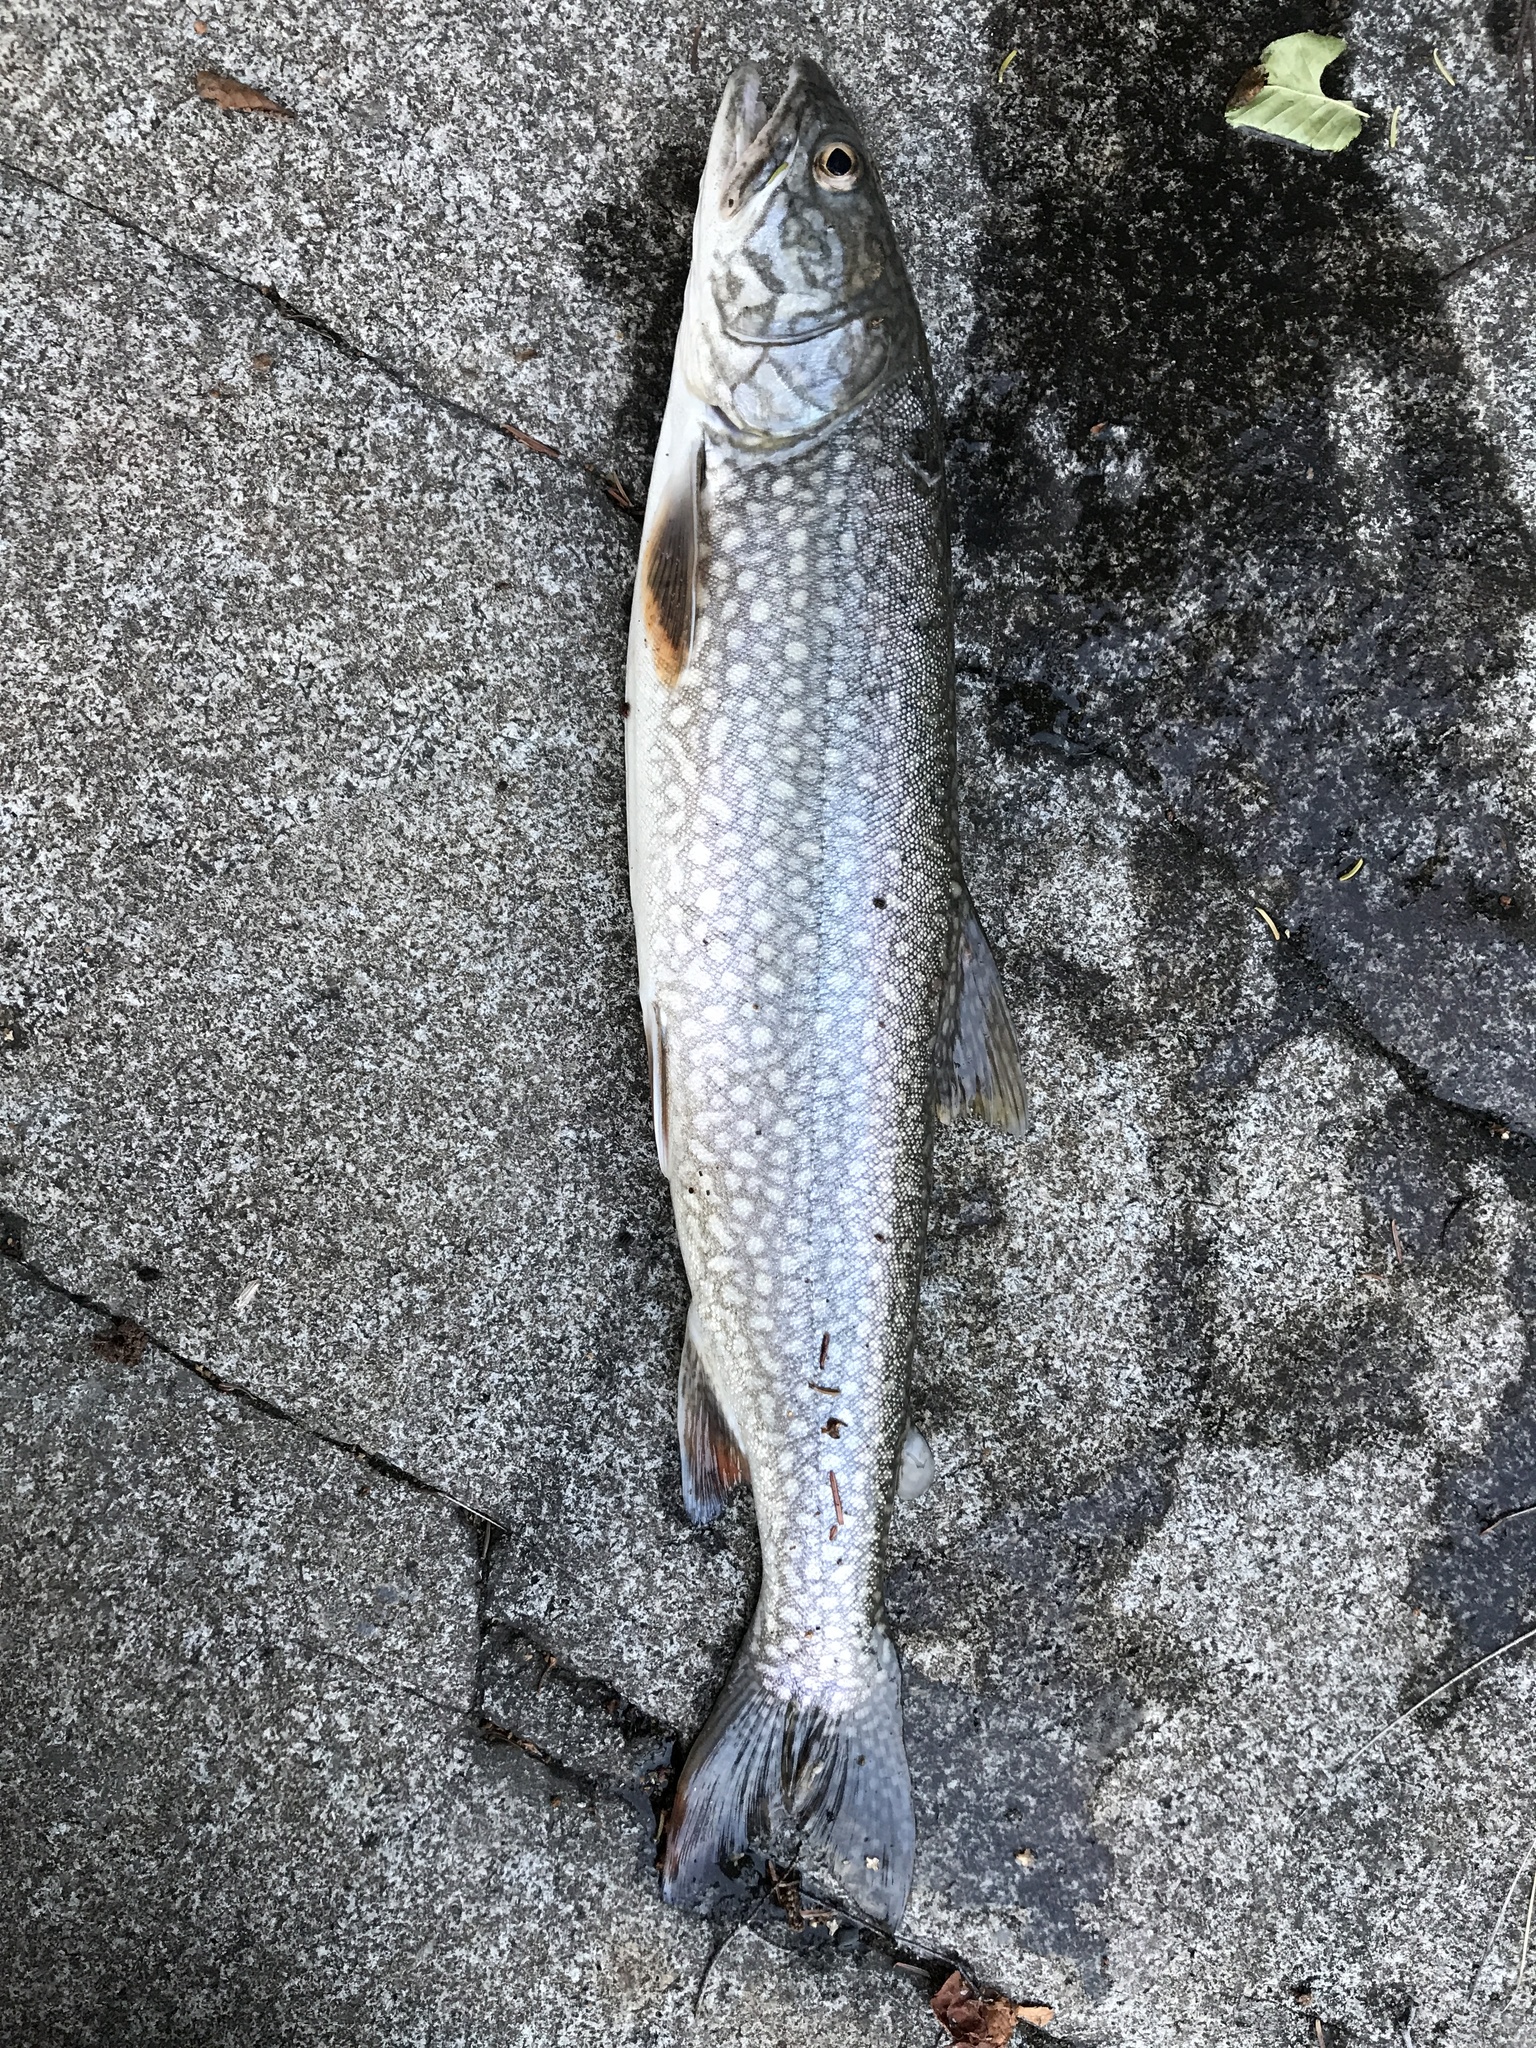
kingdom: Animalia
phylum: Chordata
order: Salmoniformes
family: Salmonidae
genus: Salvelinus
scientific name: Salvelinus namaycush
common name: American lake charr
